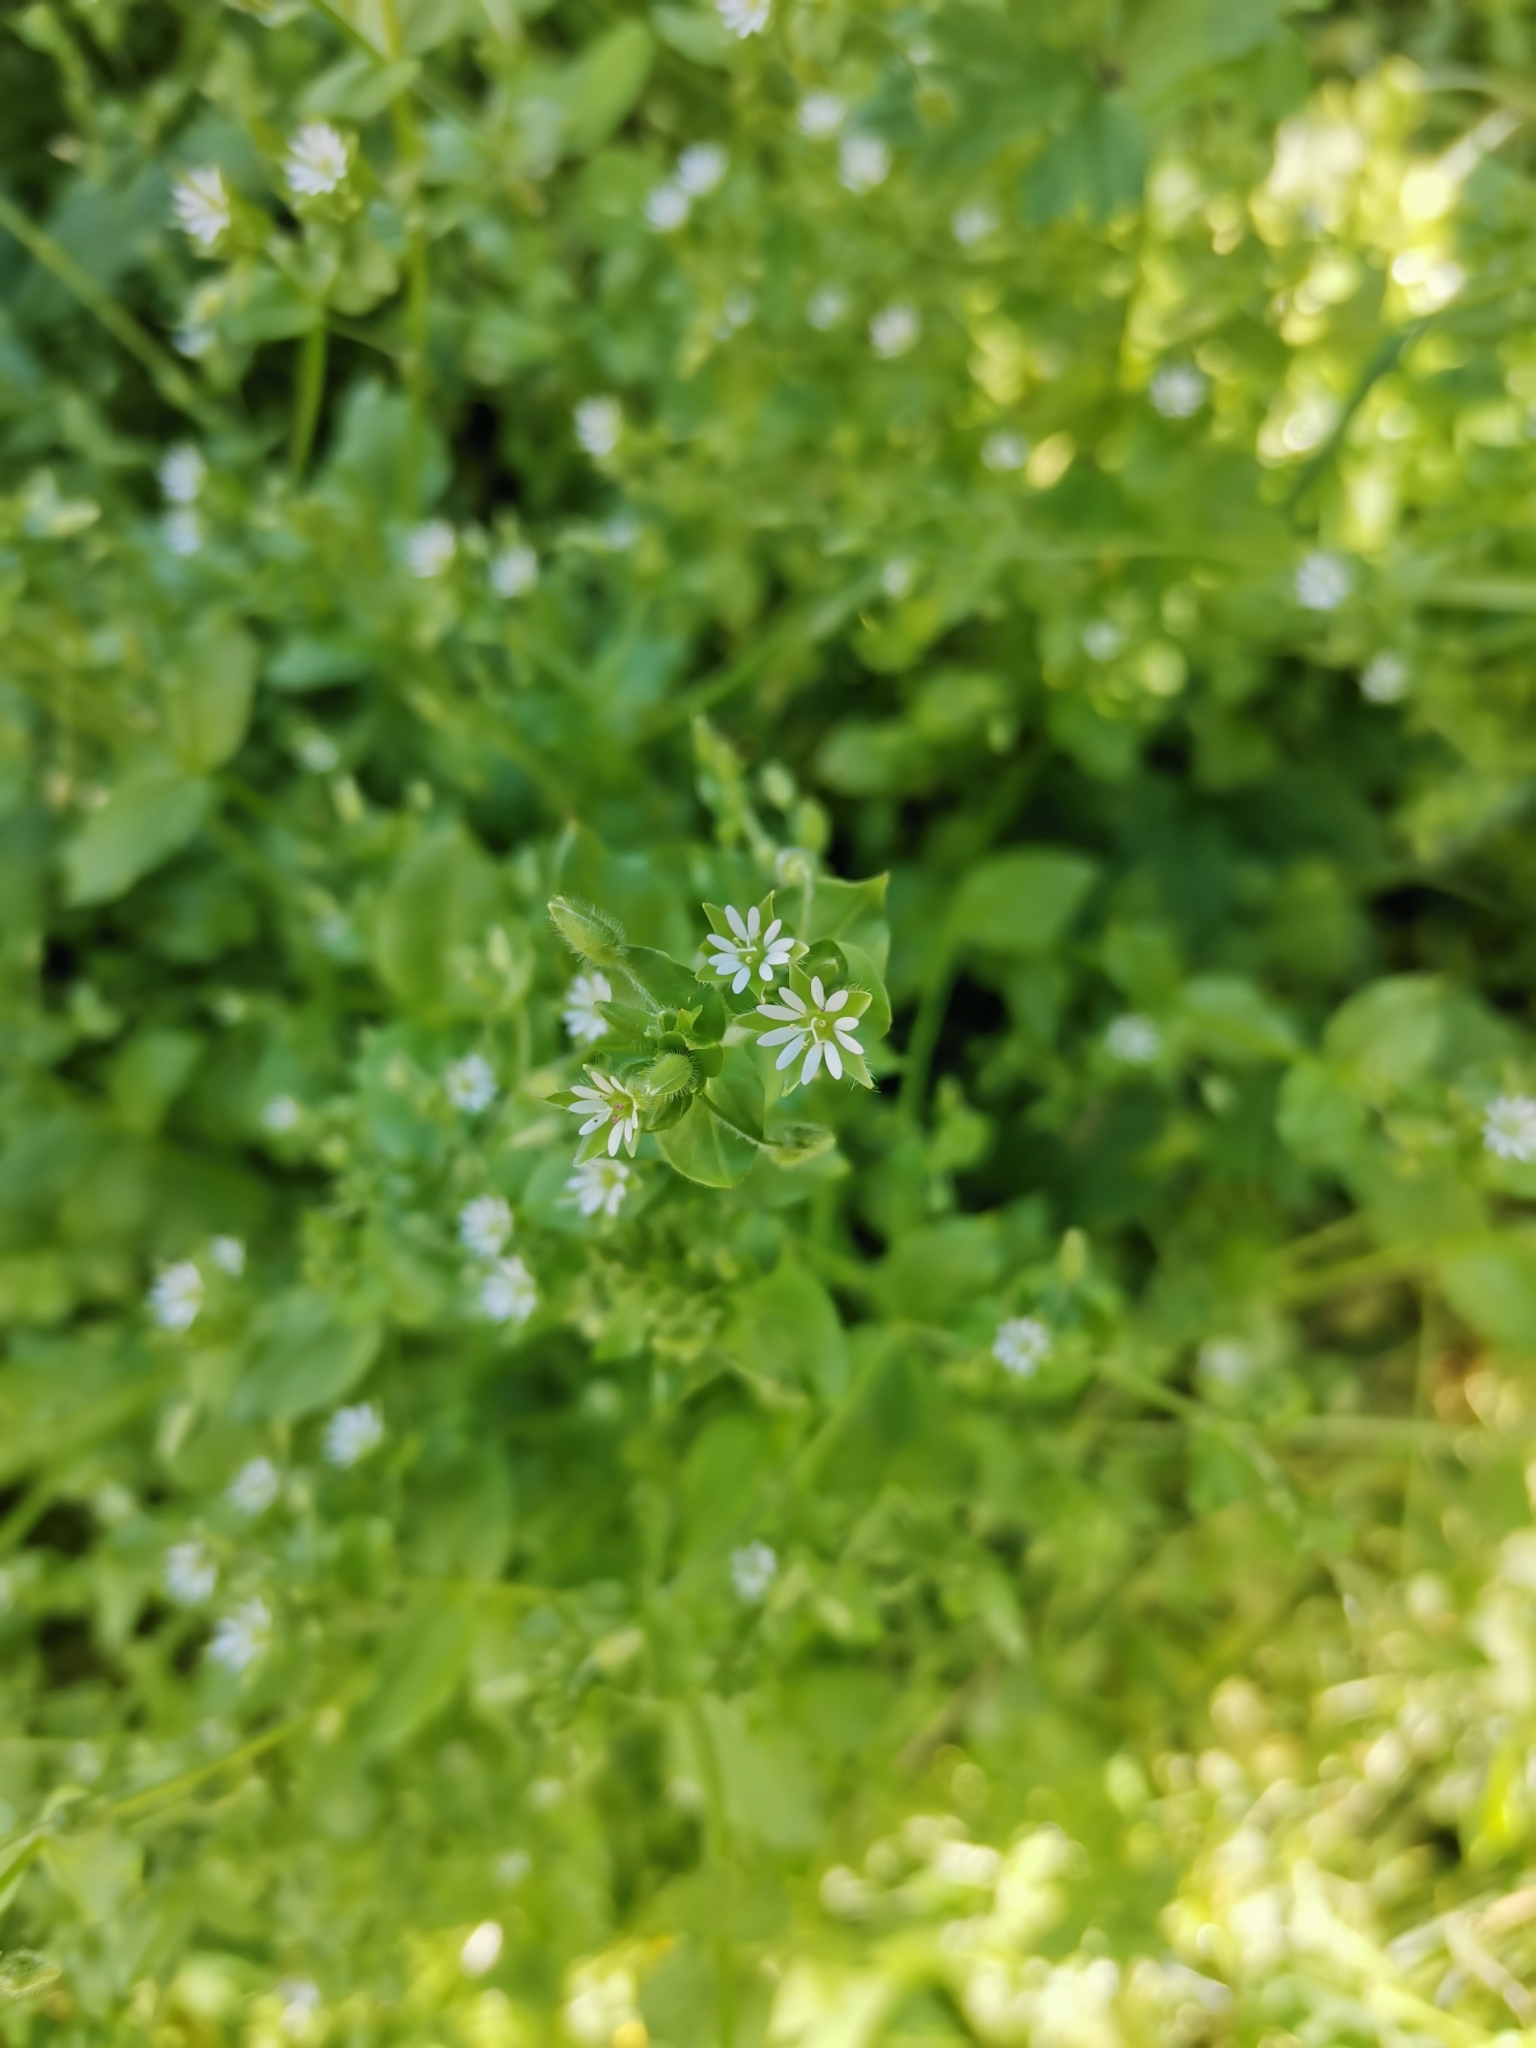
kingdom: Plantae
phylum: Tracheophyta
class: Magnoliopsida
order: Caryophyllales
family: Caryophyllaceae
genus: Stellaria
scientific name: Stellaria media
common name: Common chickweed
